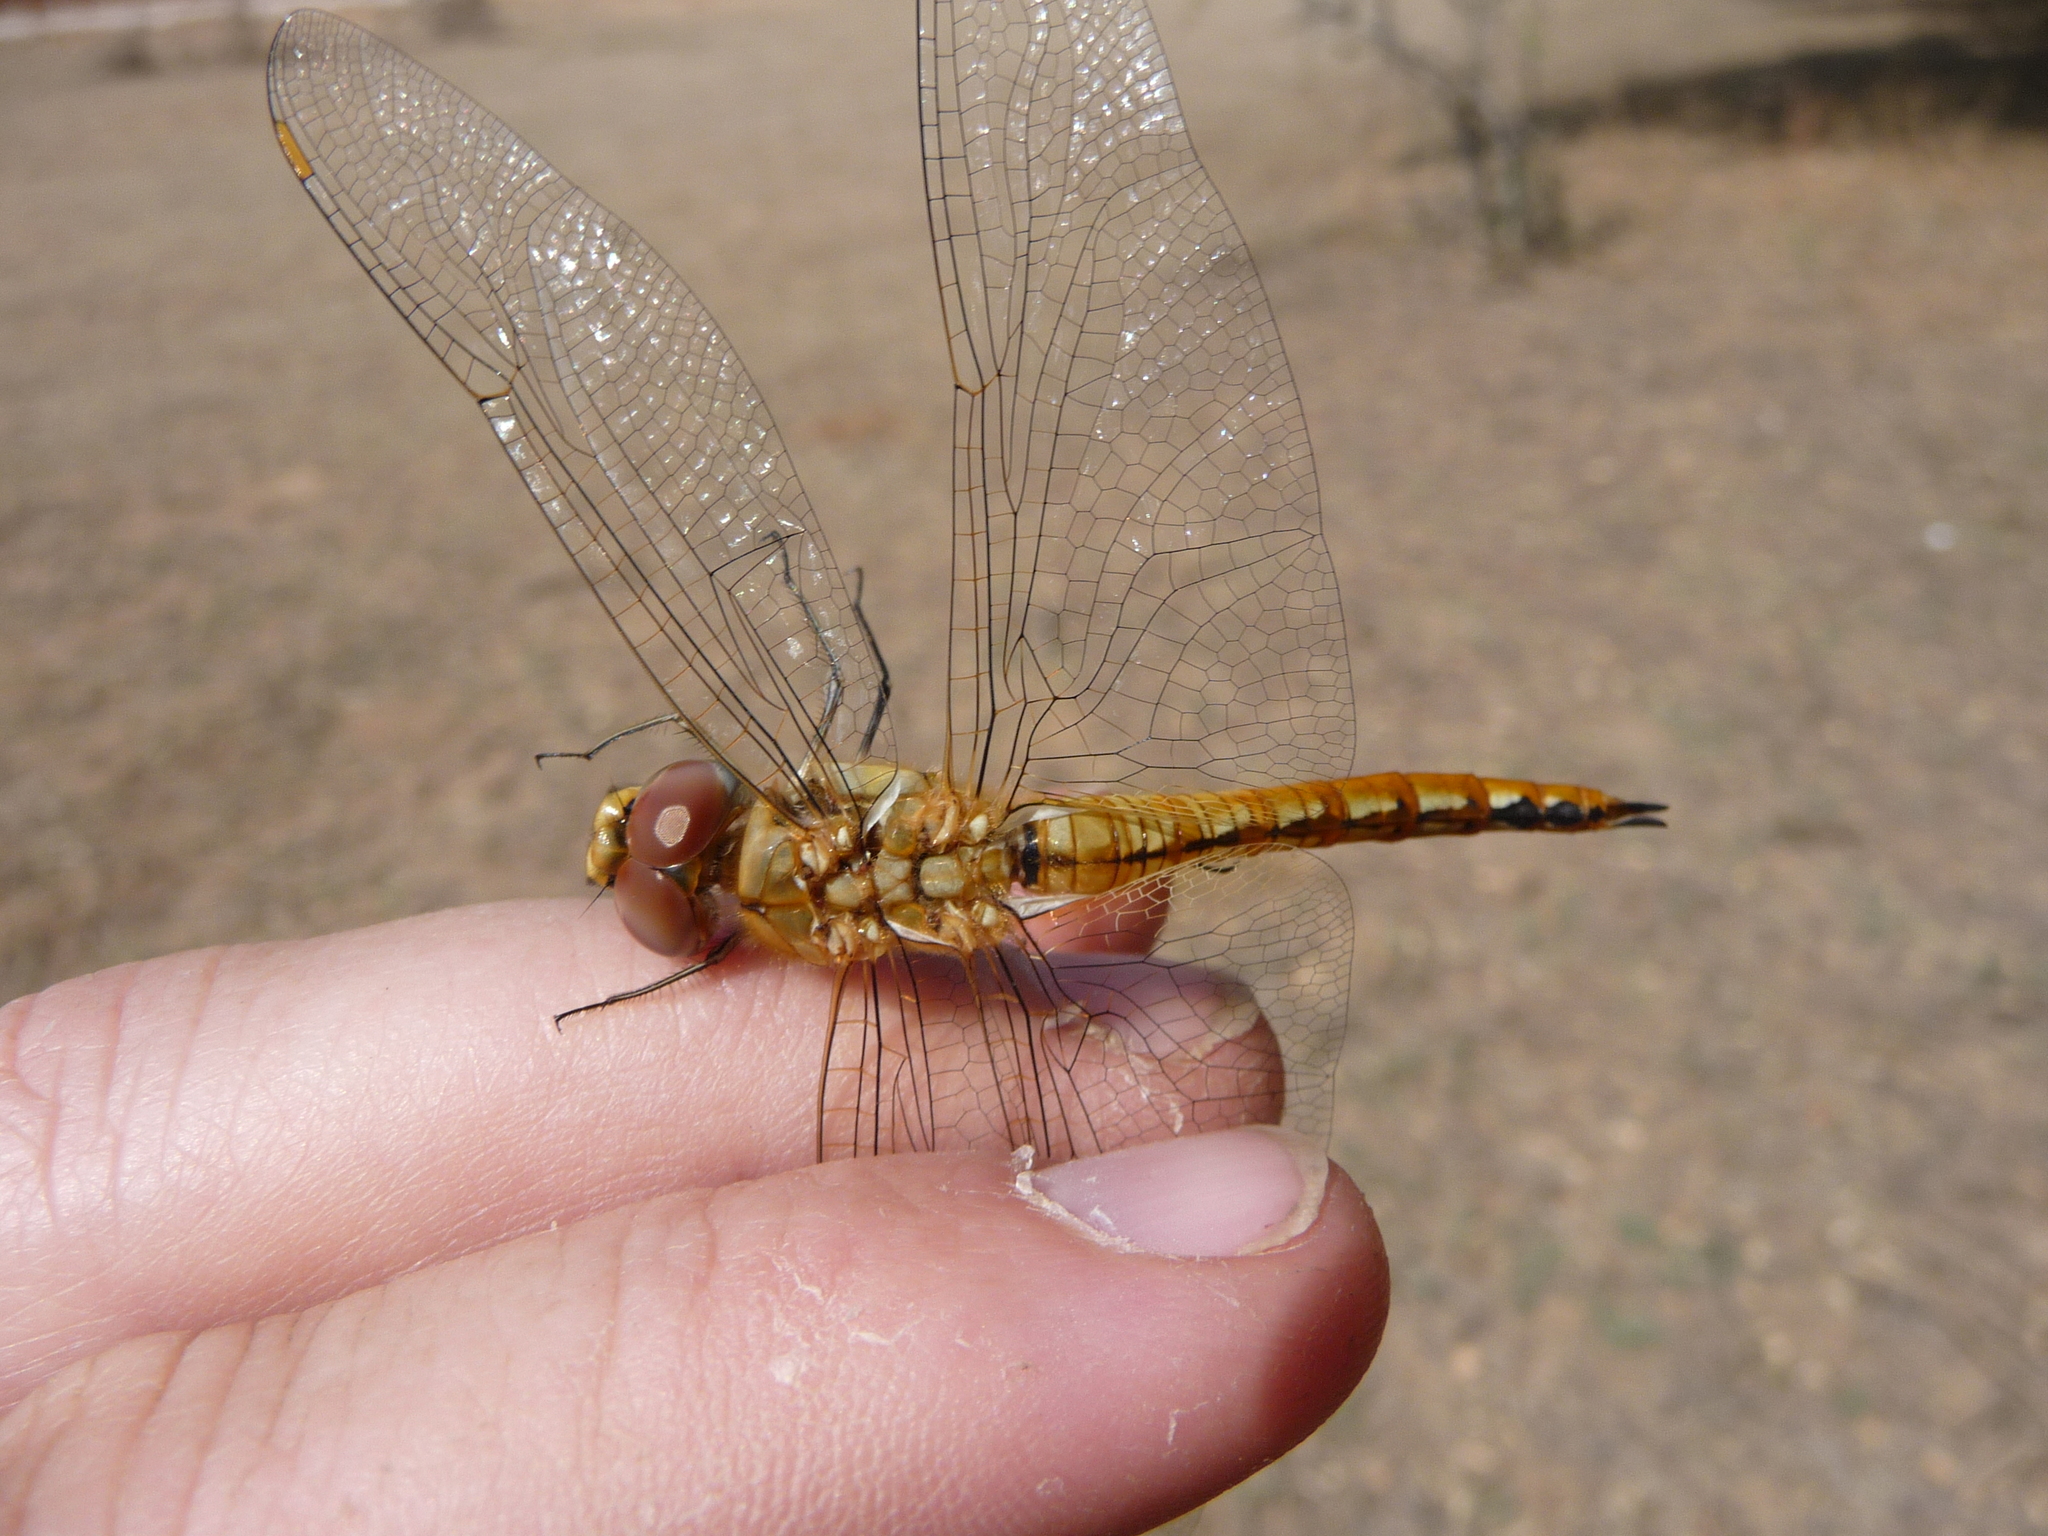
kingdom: Animalia
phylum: Arthropoda
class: Insecta
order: Odonata
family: Libellulidae
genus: Pantala
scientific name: Pantala flavescens
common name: Wandering glider
